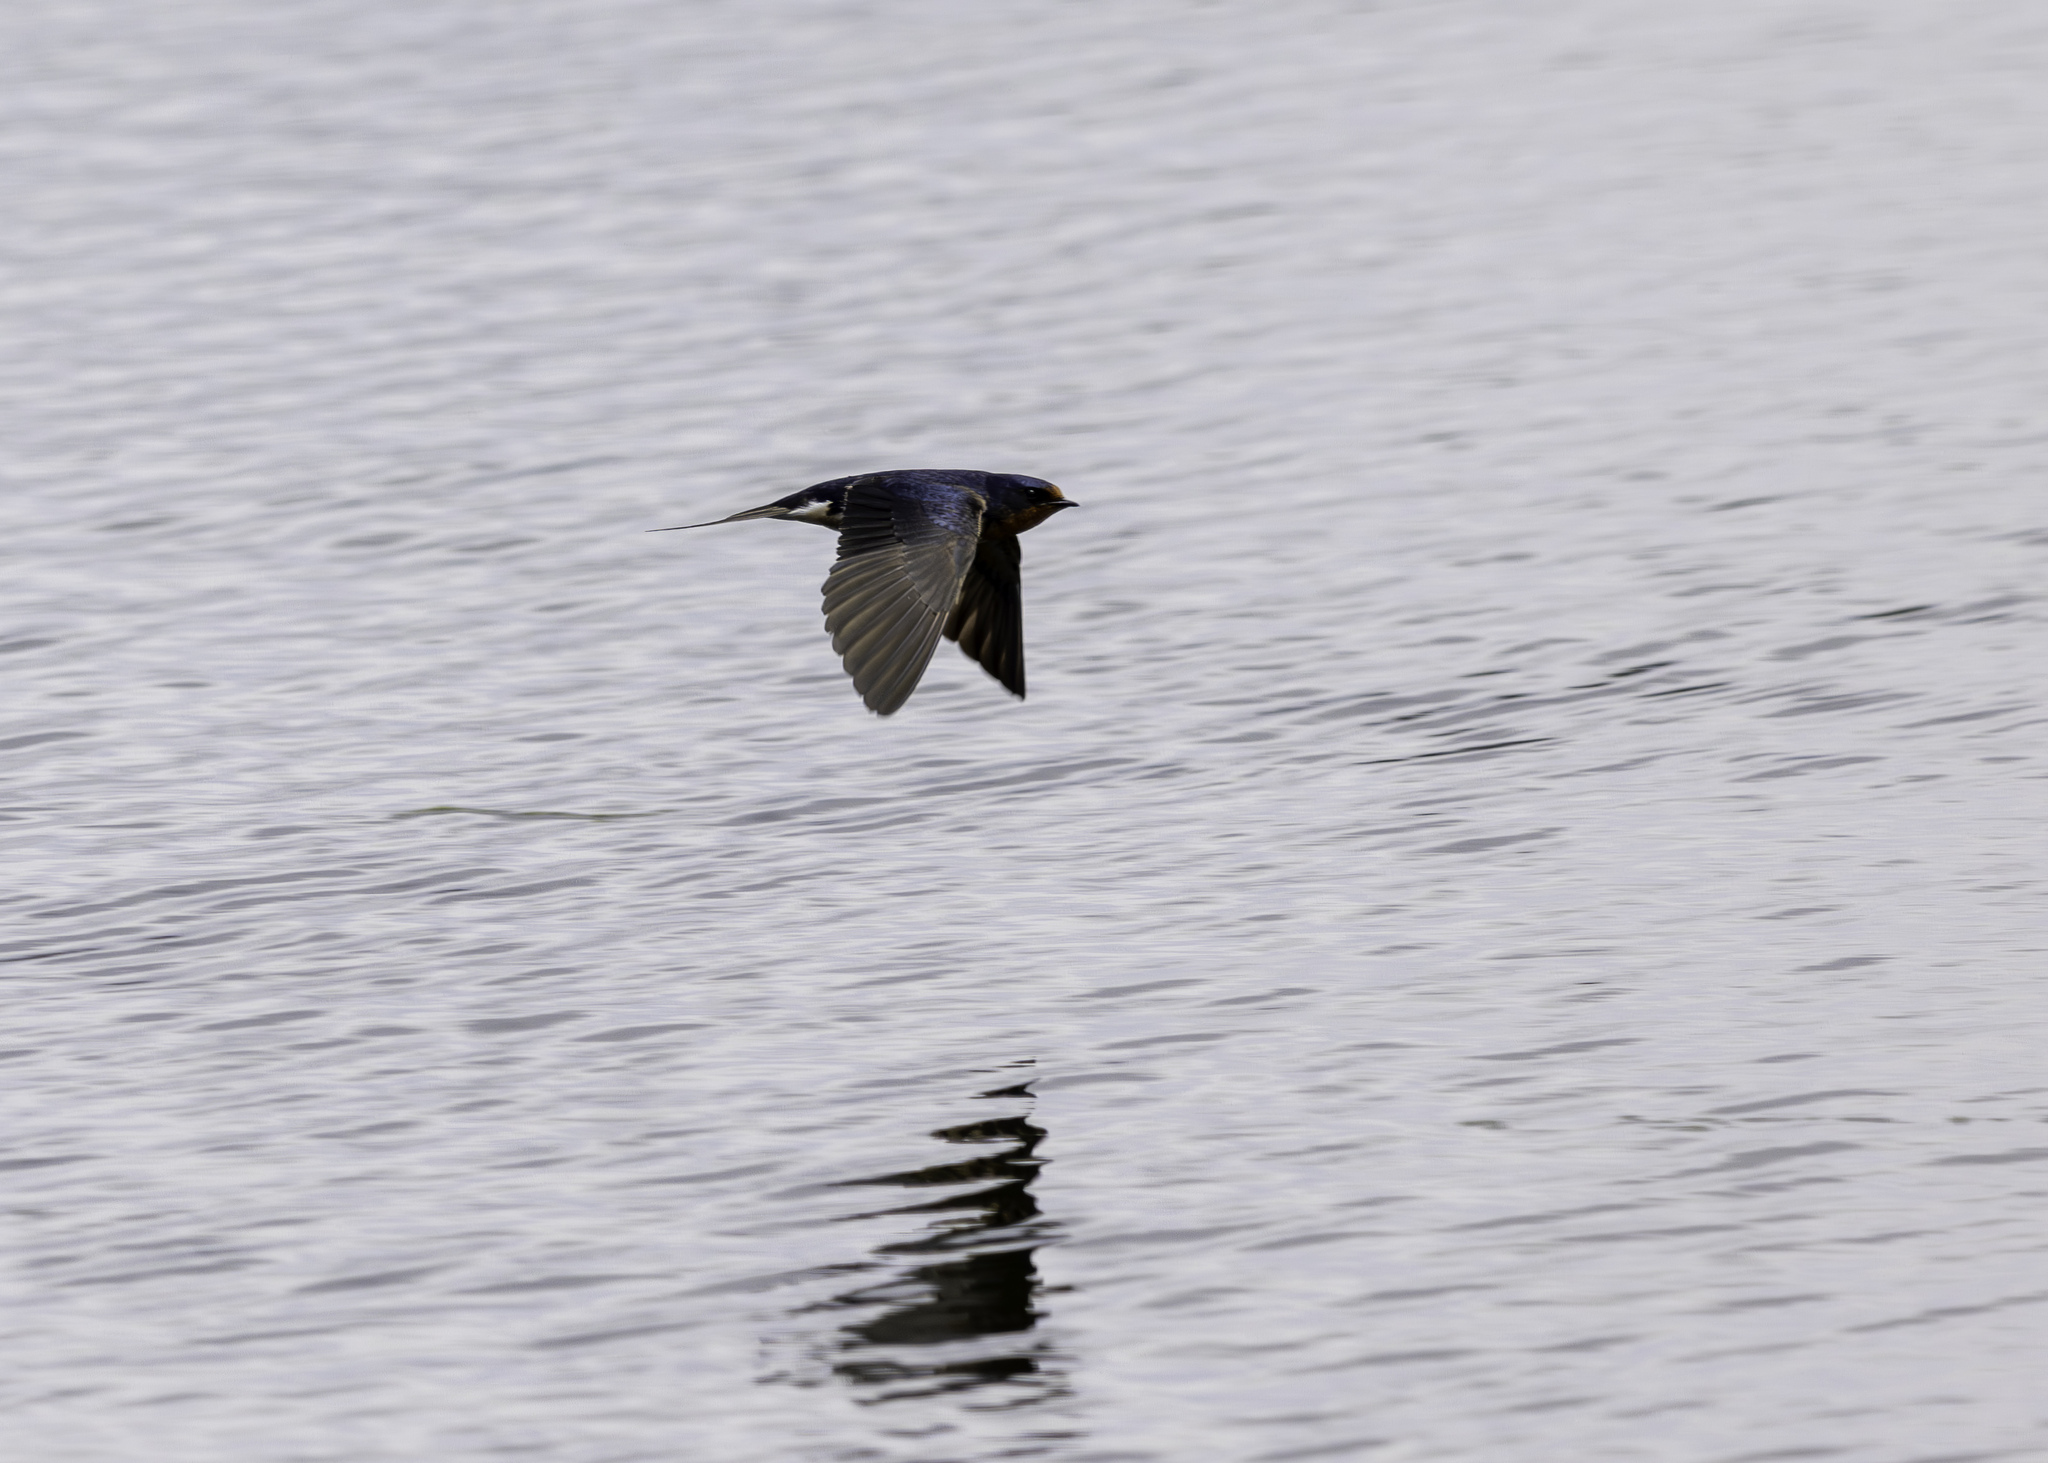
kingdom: Animalia
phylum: Chordata
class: Aves
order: Passeriformes
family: Hirundinidae
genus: Hirundo
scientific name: Hirundo rustica
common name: Barn swallow
